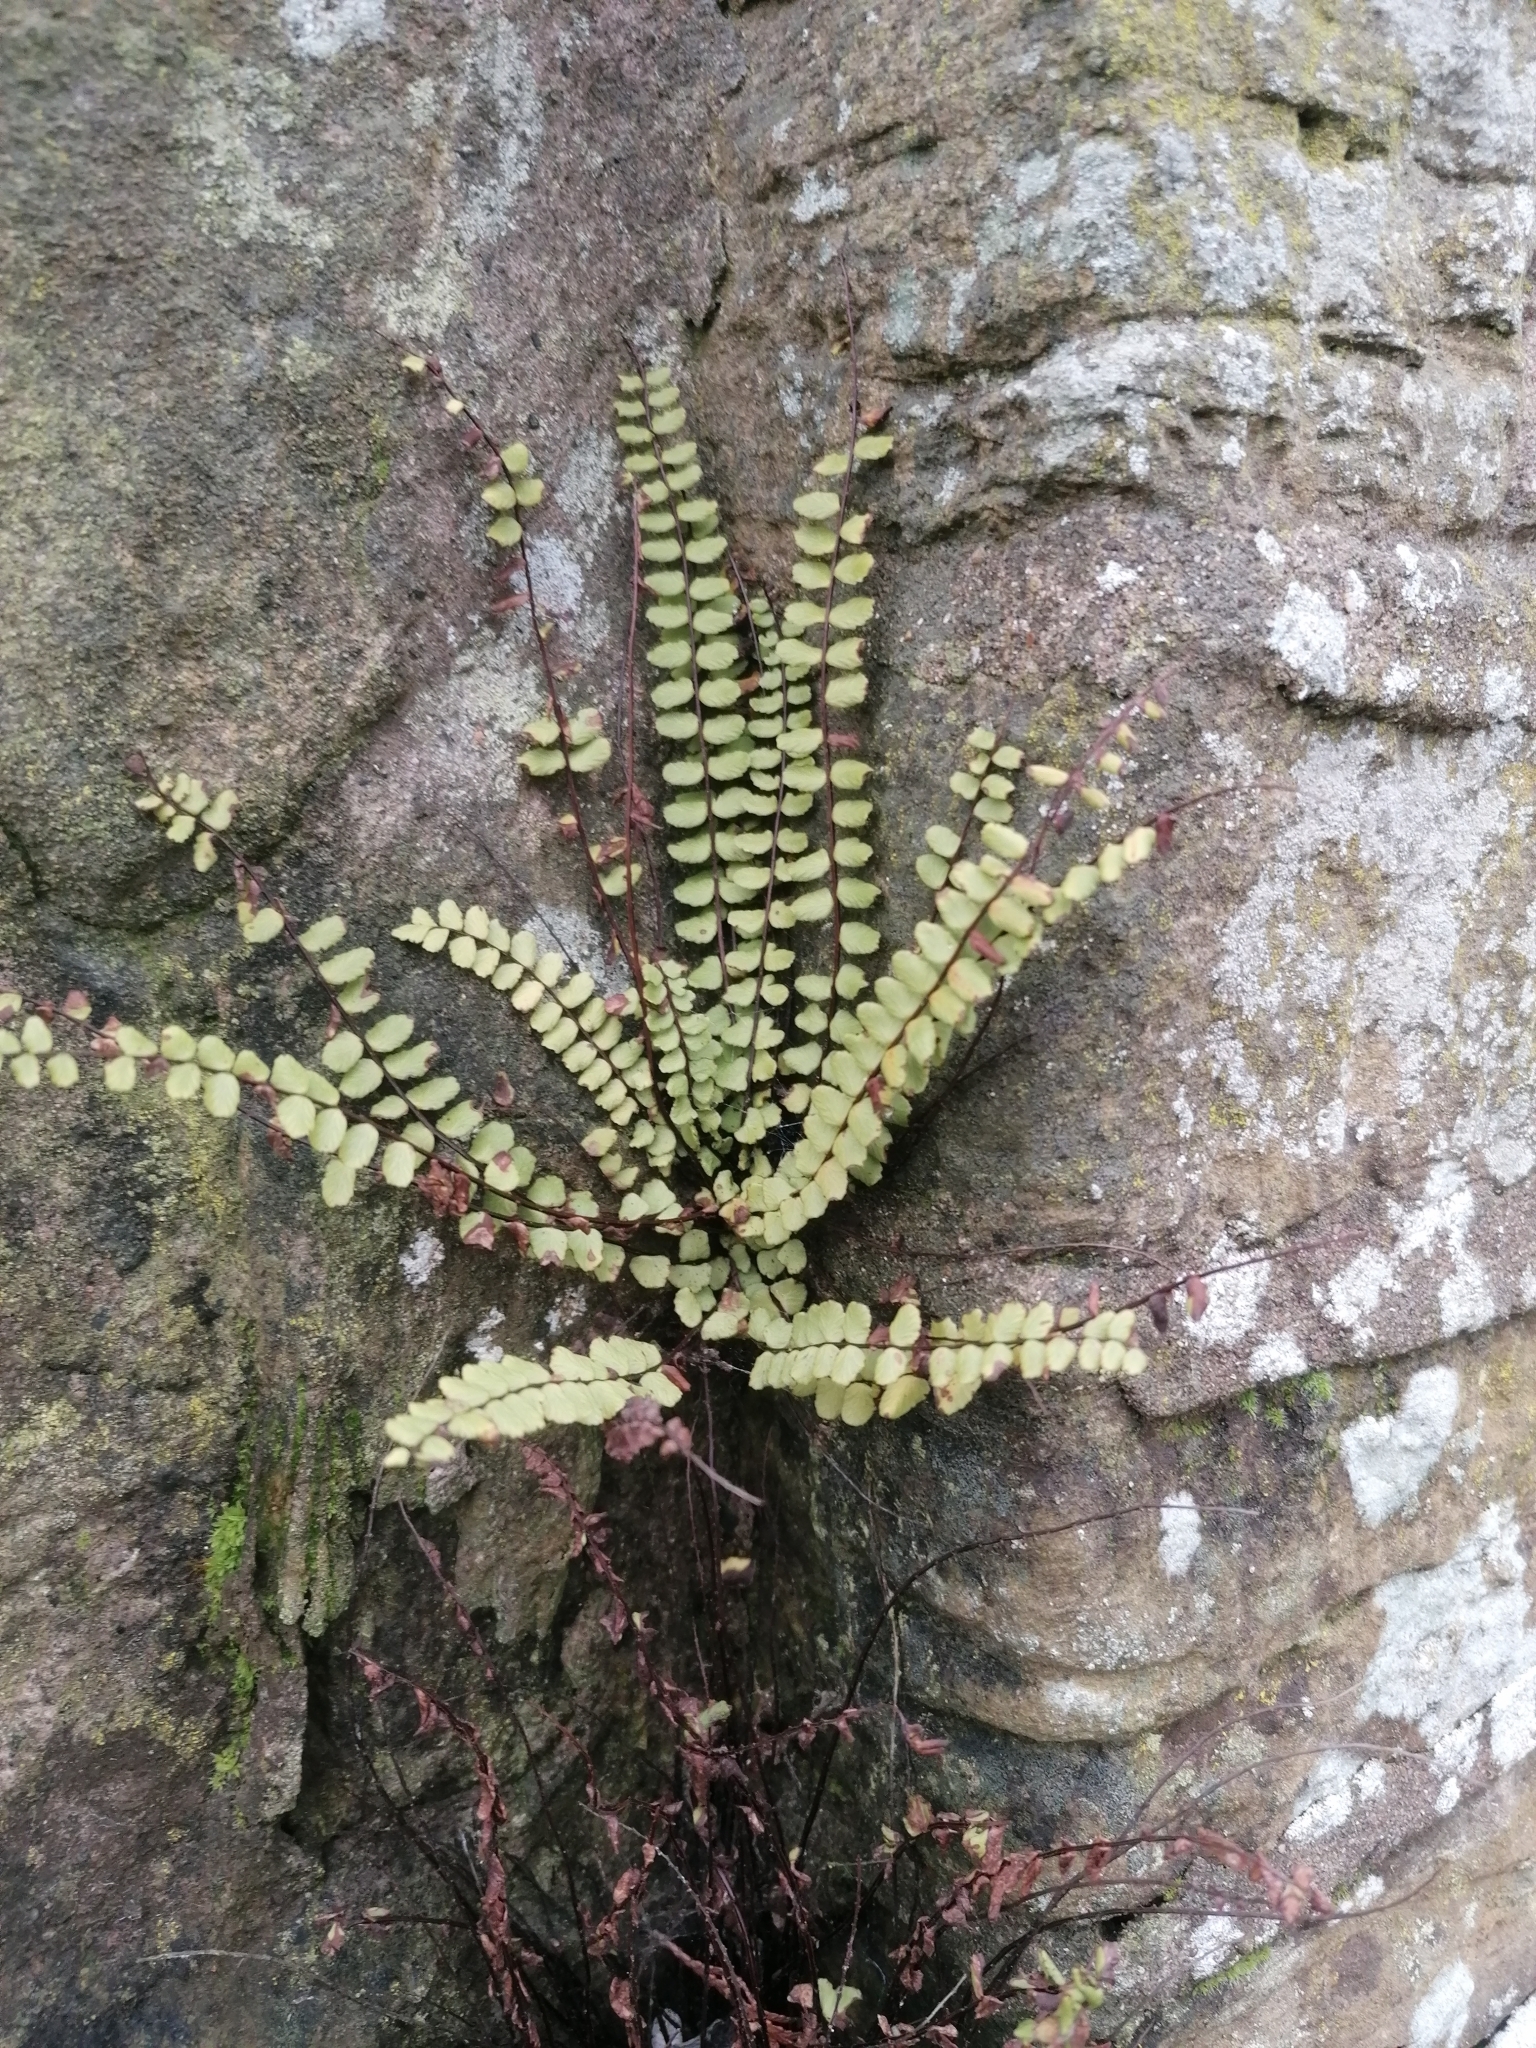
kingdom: Plantae
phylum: Tracheophyta
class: Polypodiopsida
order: Polypodiales
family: Aspleniaceae
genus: Asplenium
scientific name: Asplenium trichomanes
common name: Maidenhair spleenwort
